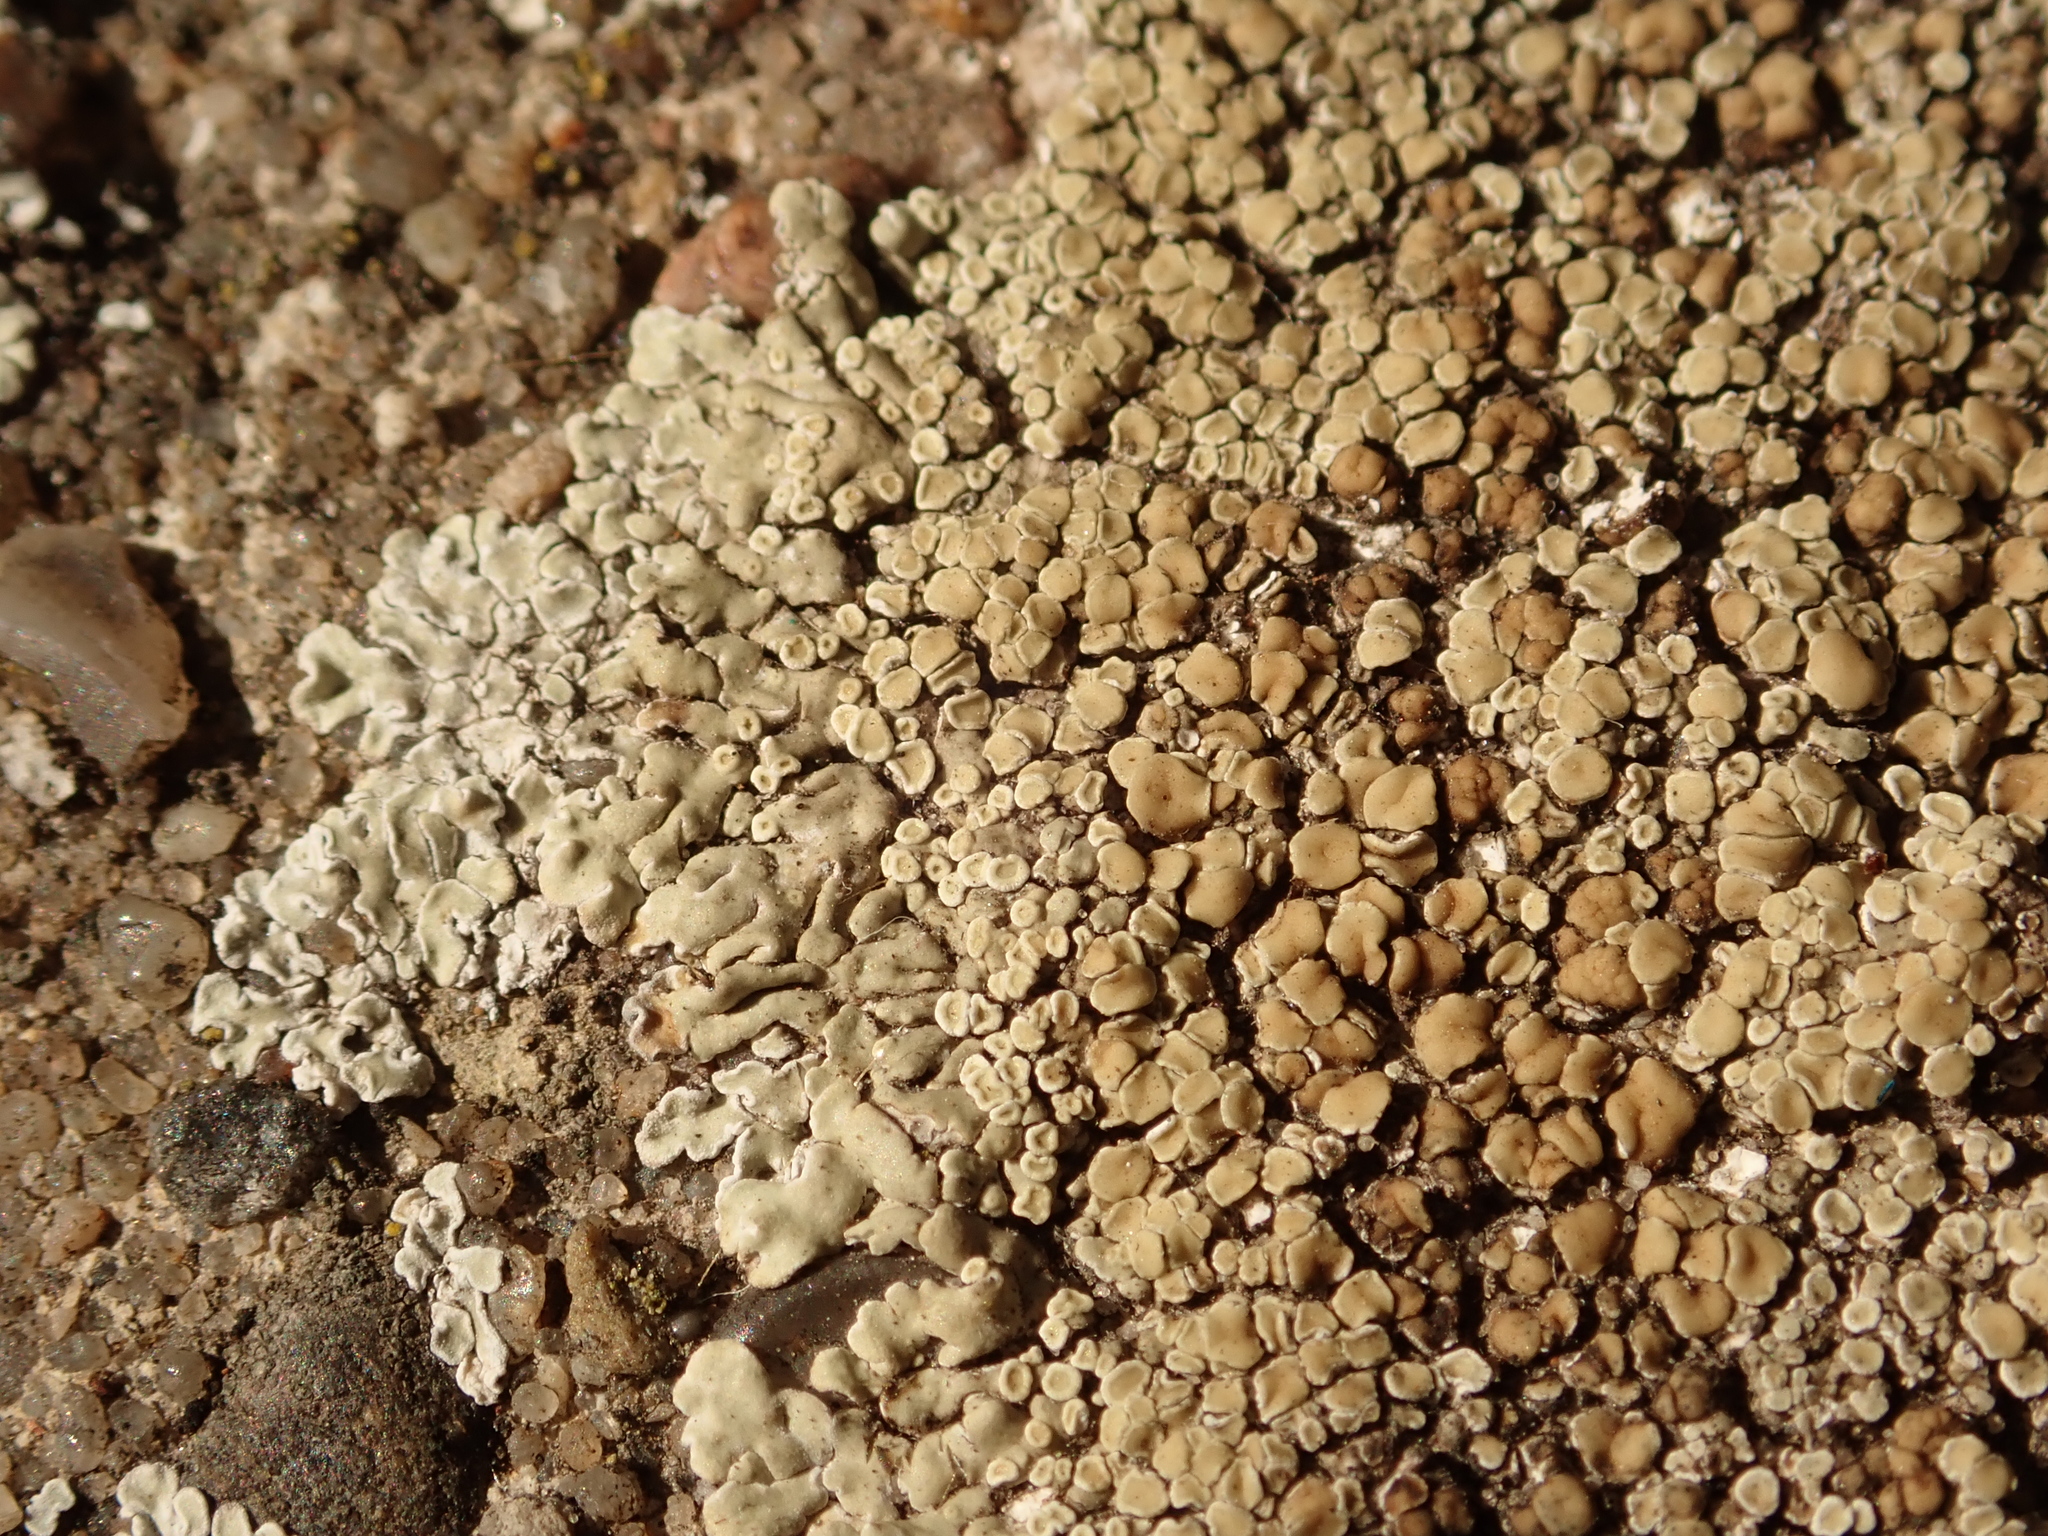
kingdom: Fungi
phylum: Ascomycota
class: Lecanoromycetes
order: Lecanorales
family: Lecanoraceae
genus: Protoparmeliopsis
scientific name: Protoparmeliopsis muralis
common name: Stonewall rim lichen
